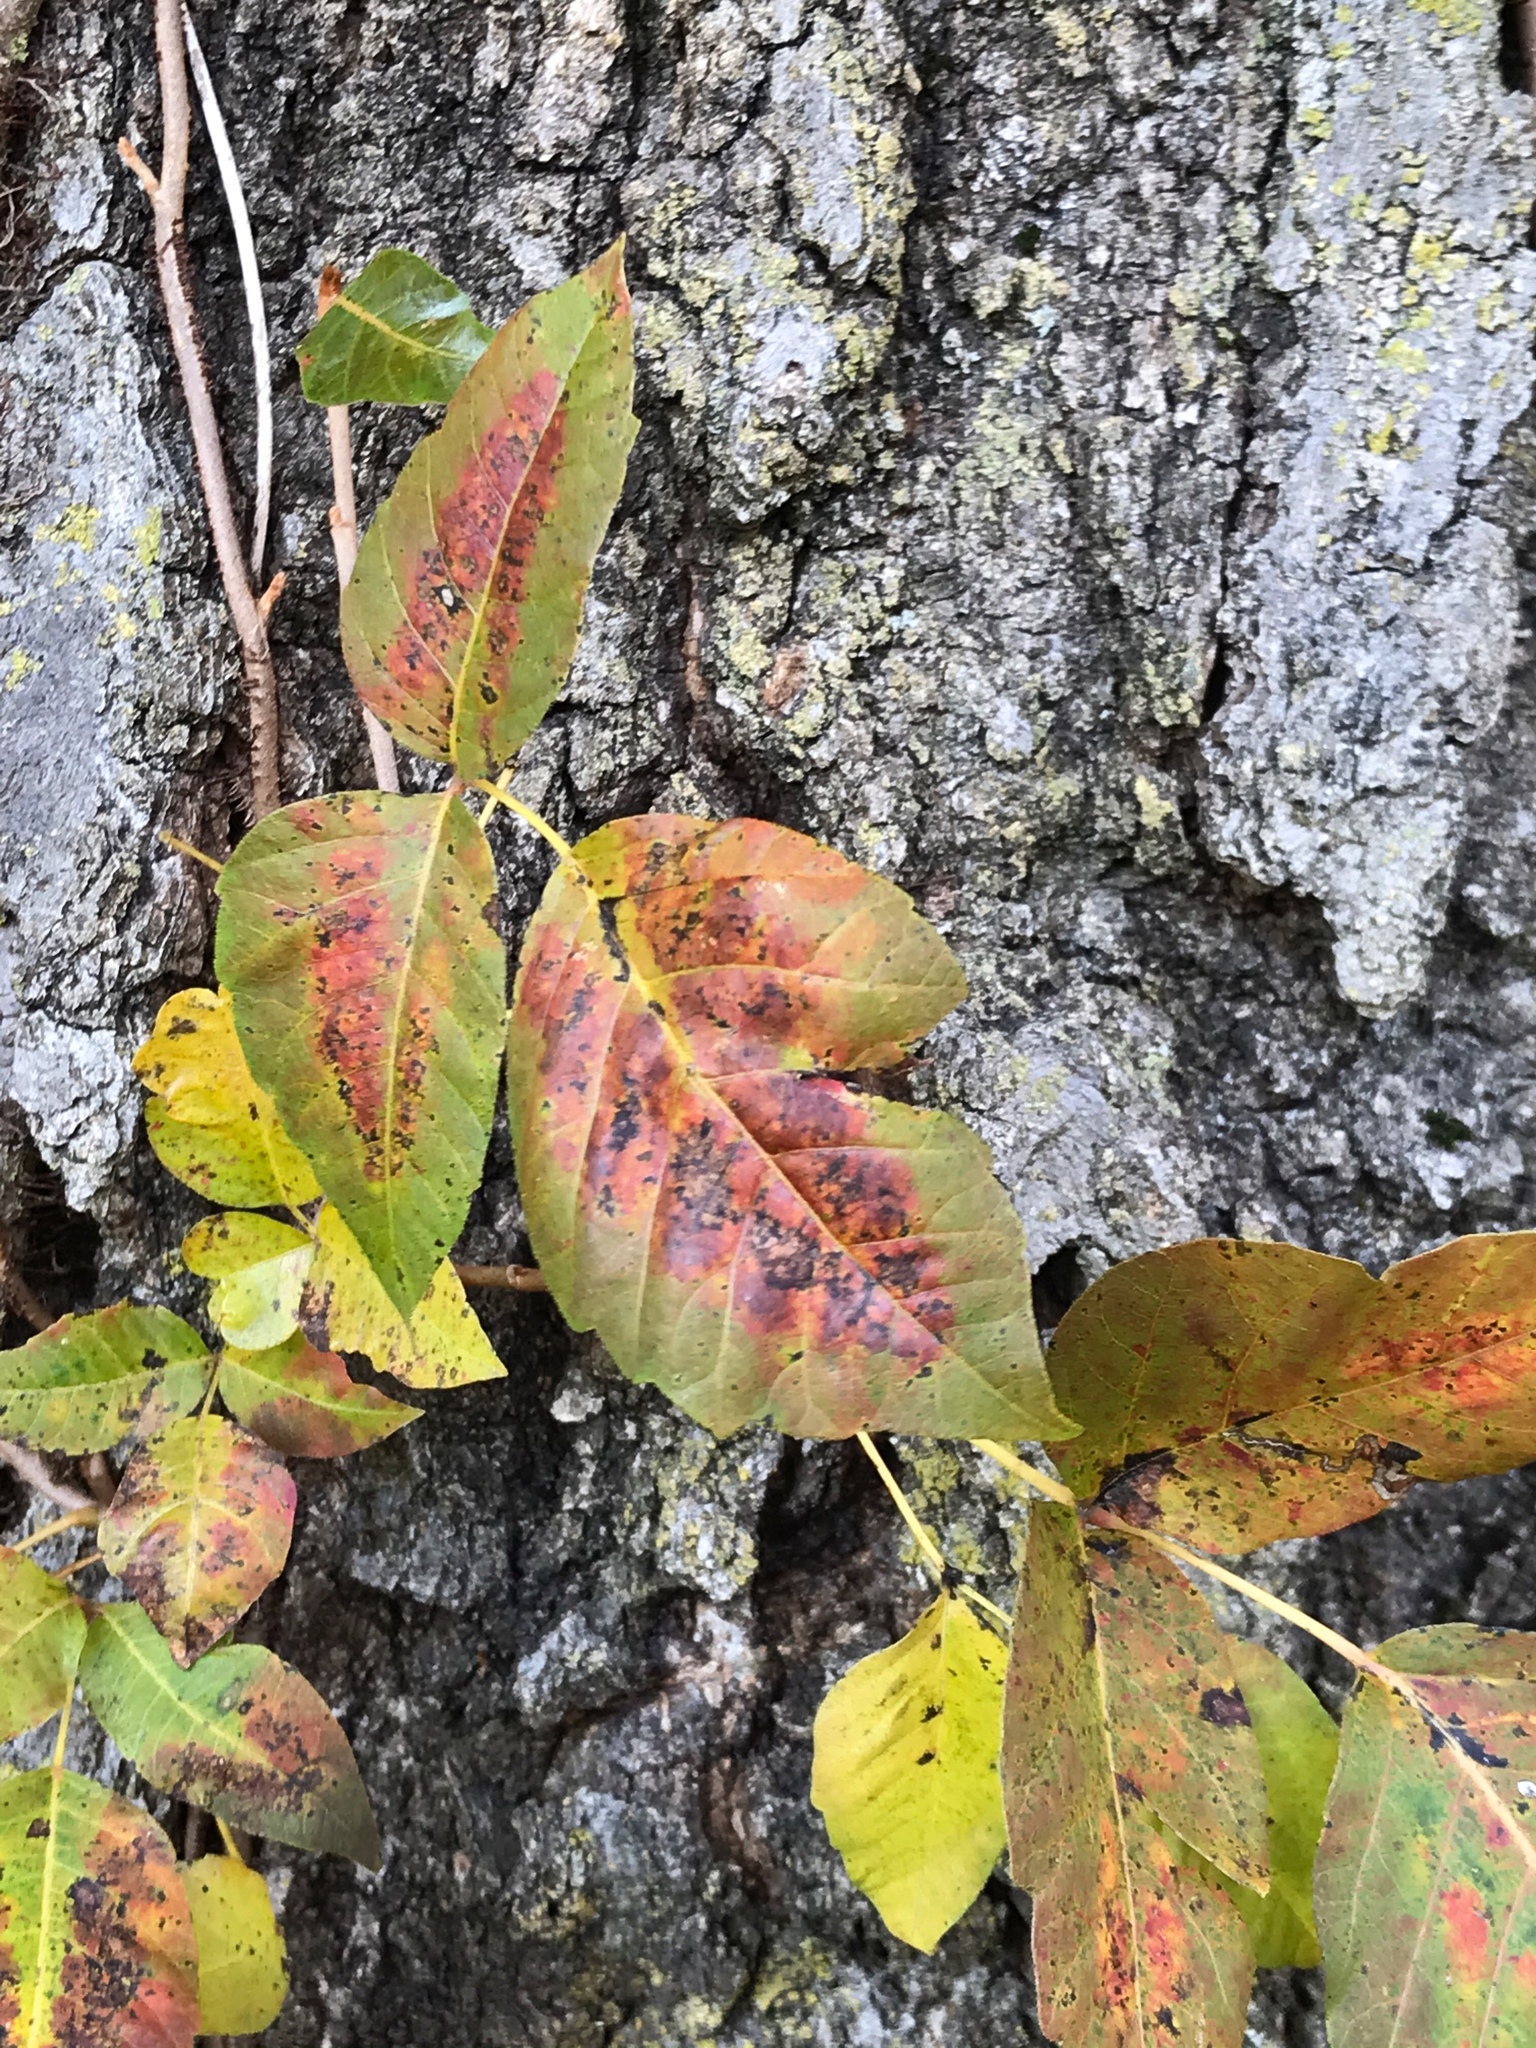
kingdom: Plantae
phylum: Tracheophyta
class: Magnoliopsida
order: Sapindales
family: Anacardiaceae
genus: Toxicodendron
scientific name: Toxicodendron radicans
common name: Poison ivy
